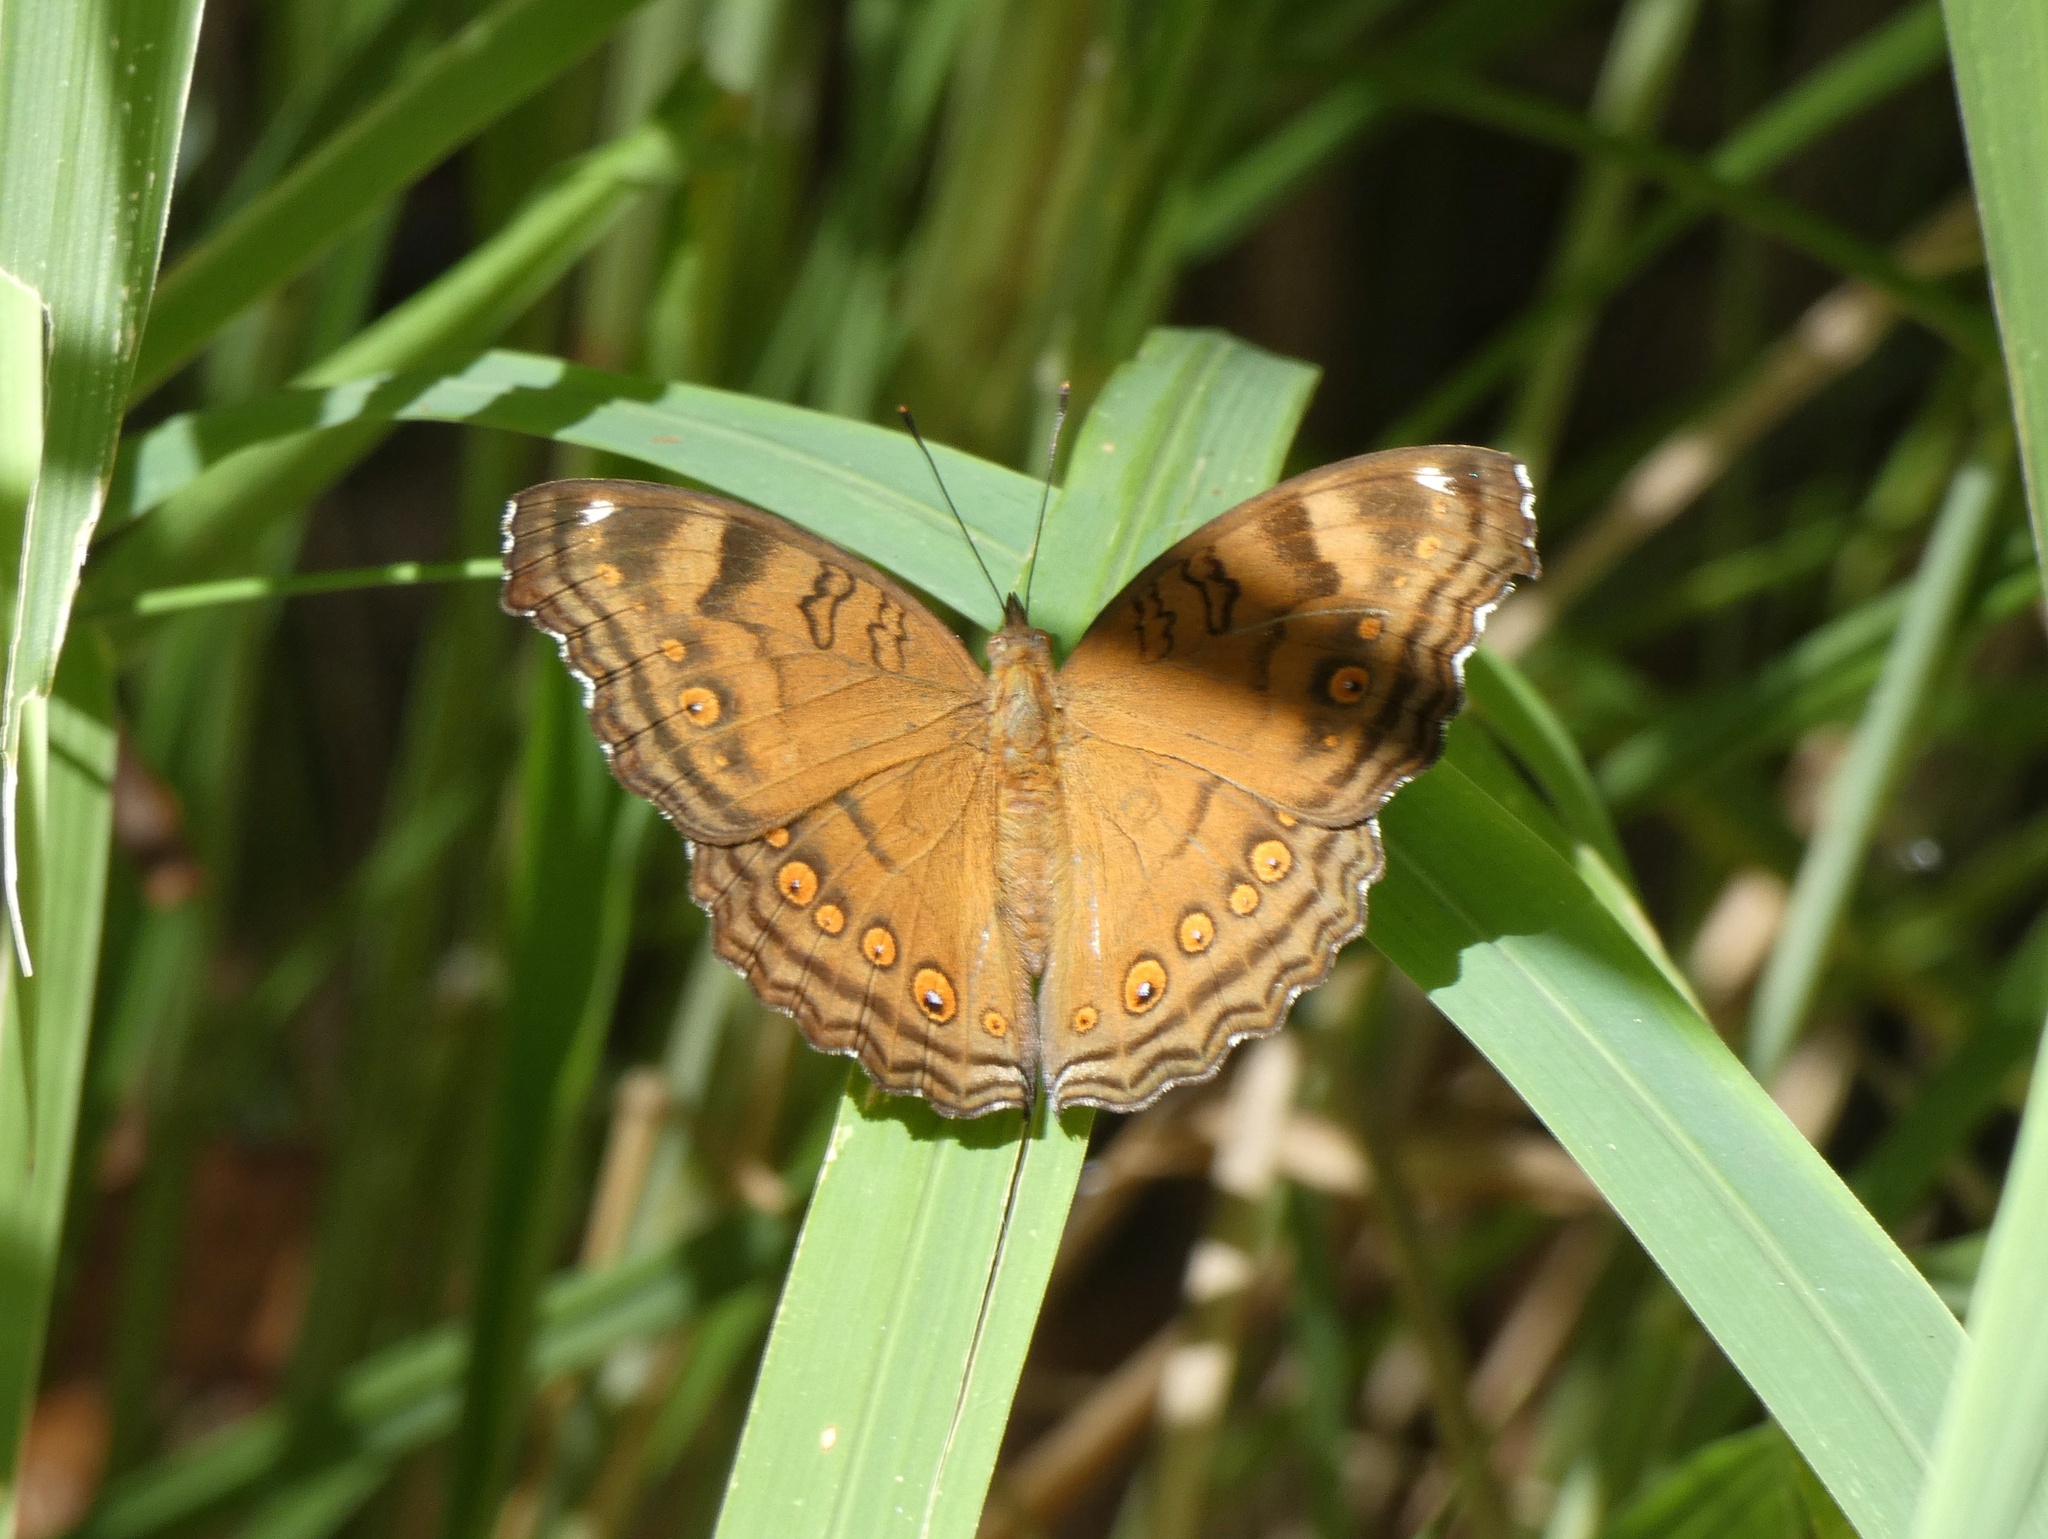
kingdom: Animalia
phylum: Arthropoda
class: Insecta
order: Lepidoptera
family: Nymphalidae
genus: Junonia
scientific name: Junonia hedonia
